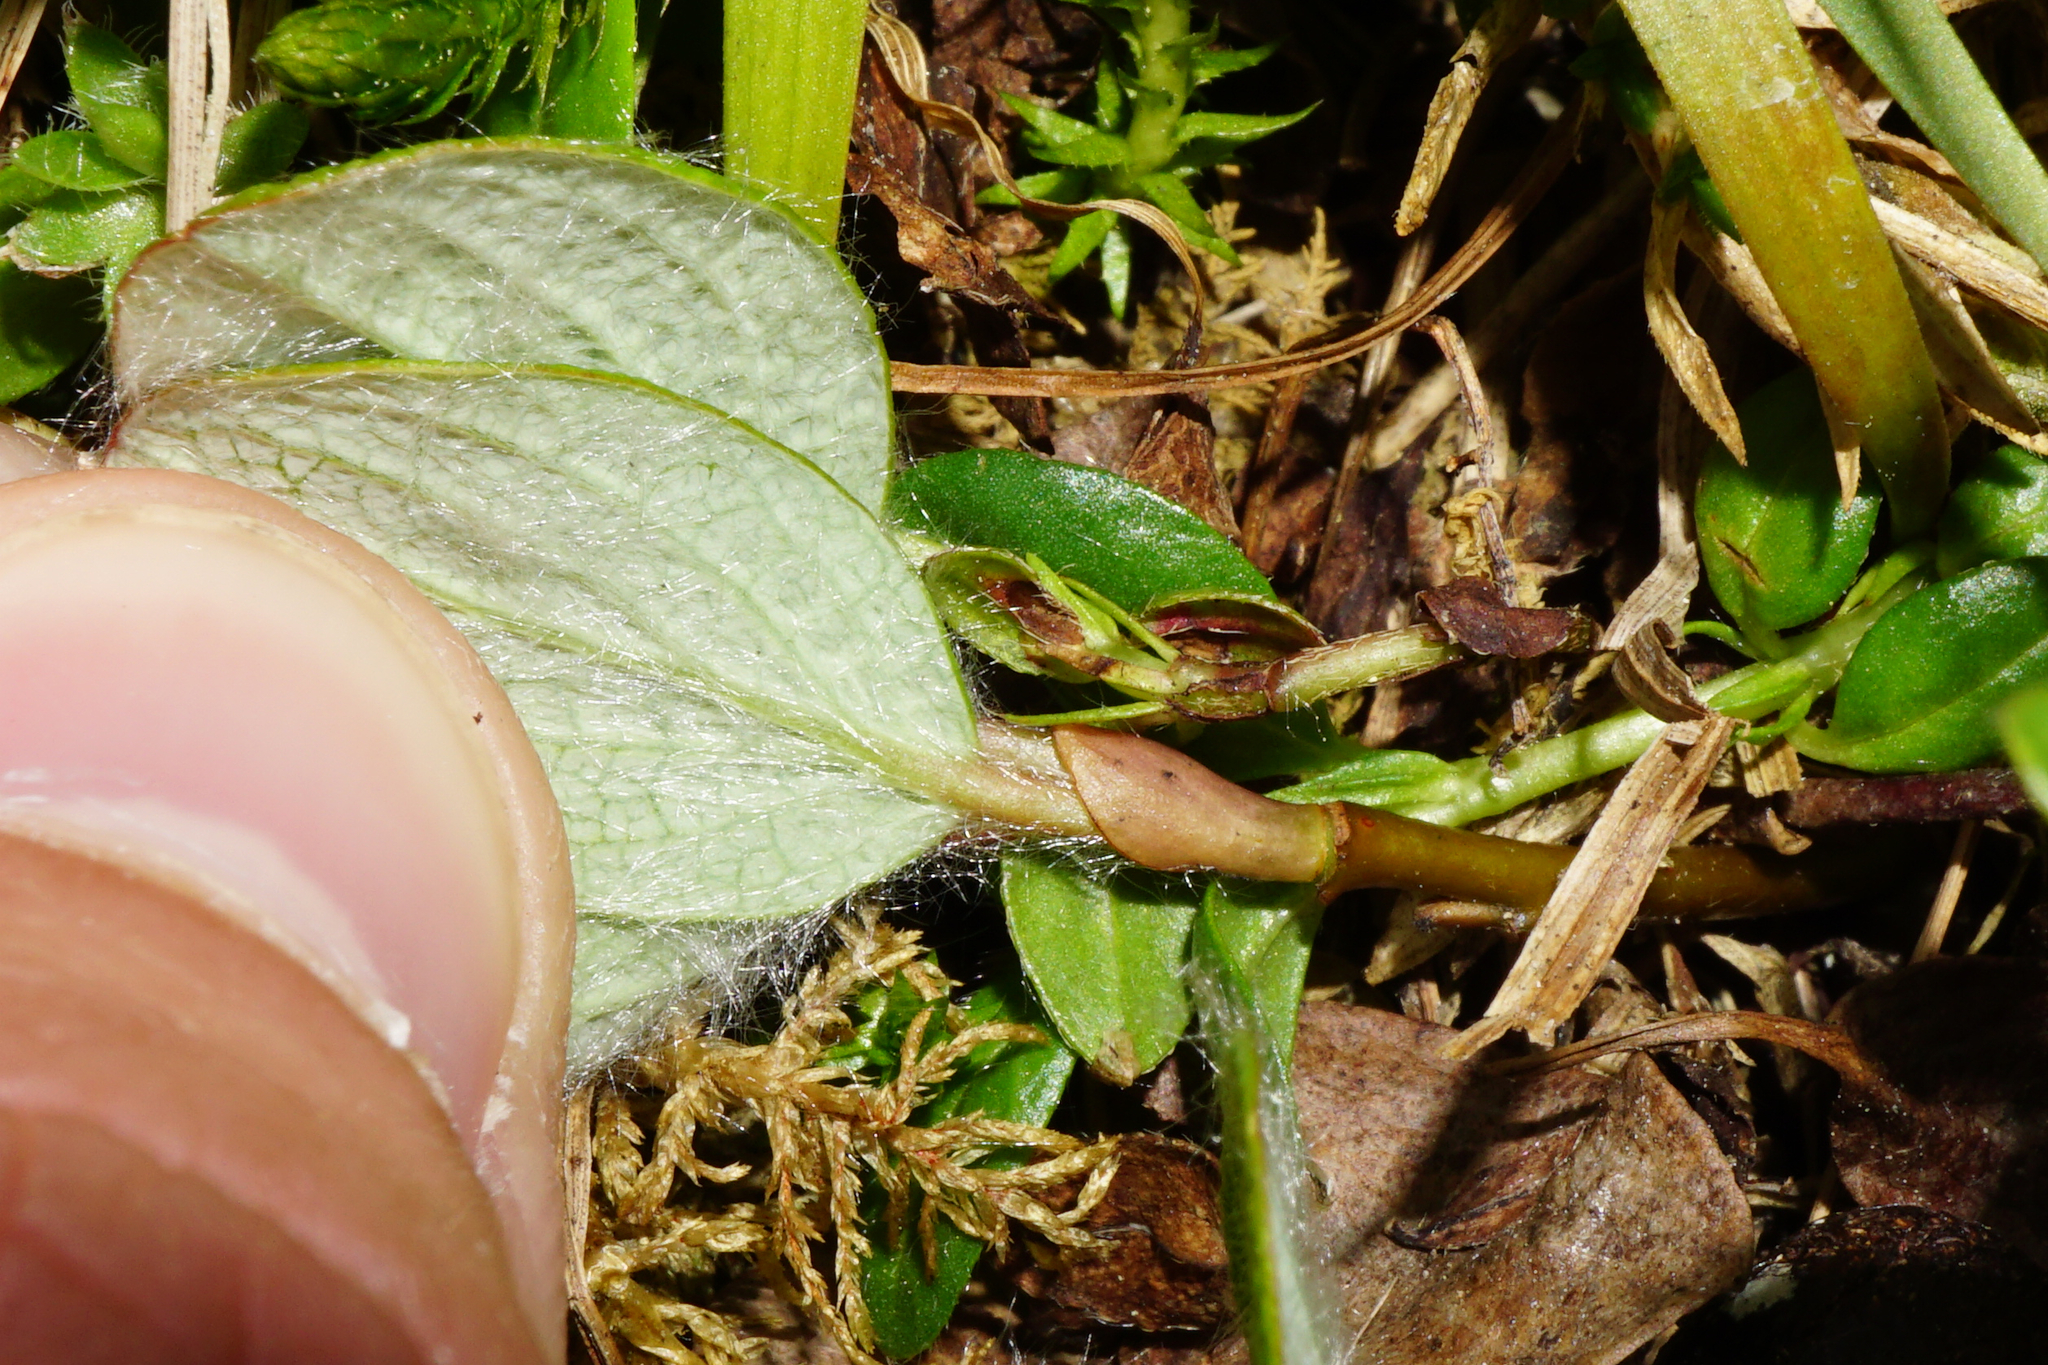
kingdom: Plantae
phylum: Tracheophyta
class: Magnoliopsida
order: Malpighiales
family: Salicaceae
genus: Salix
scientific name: Salix reticulata
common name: Net-leaved willow
